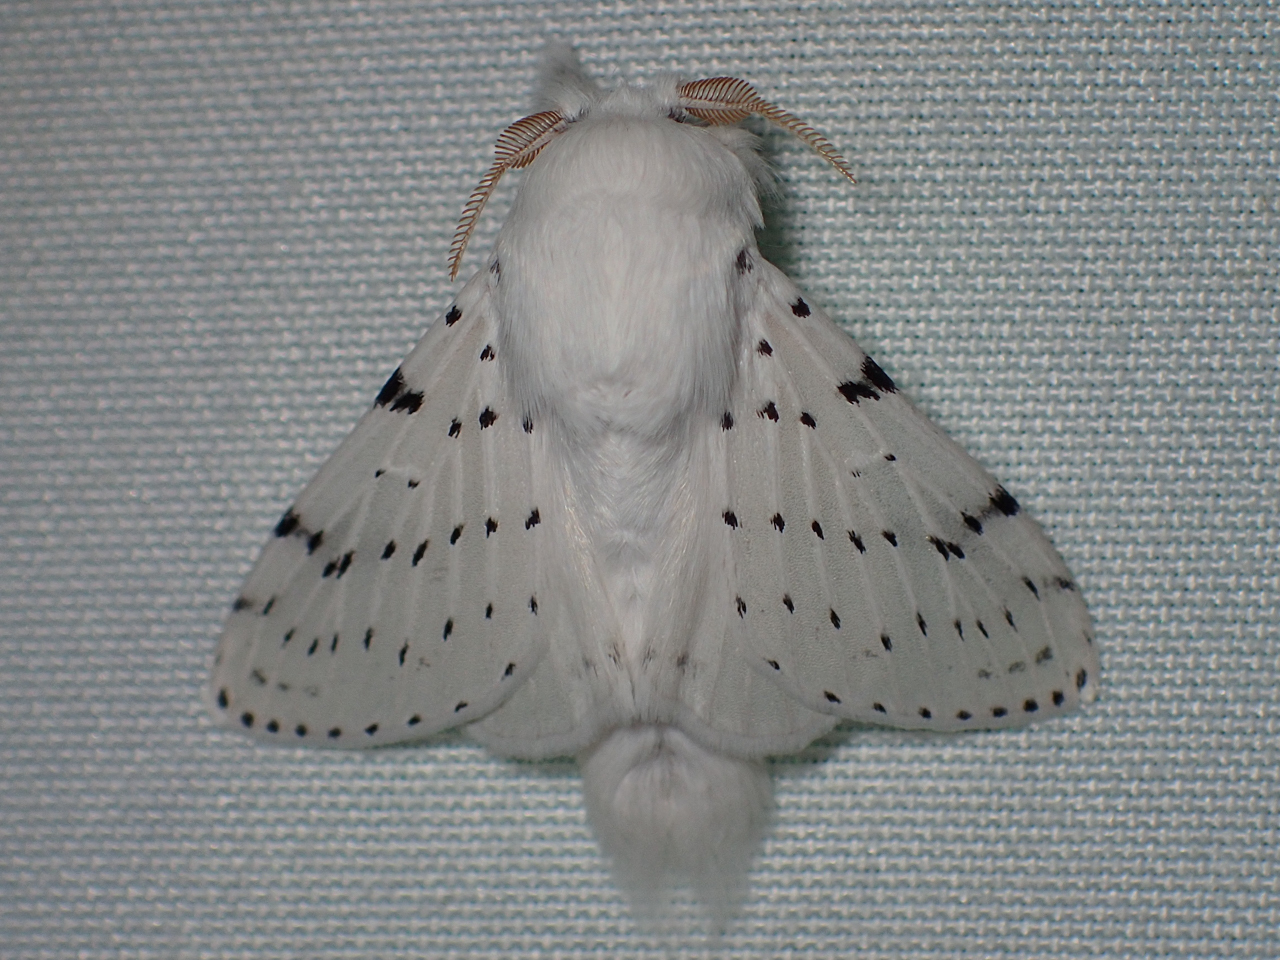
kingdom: Animalia
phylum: Arthropoda
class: Insecta
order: Lepidoptera
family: Lasiocampidae
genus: Artace
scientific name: Artace cribrarius
